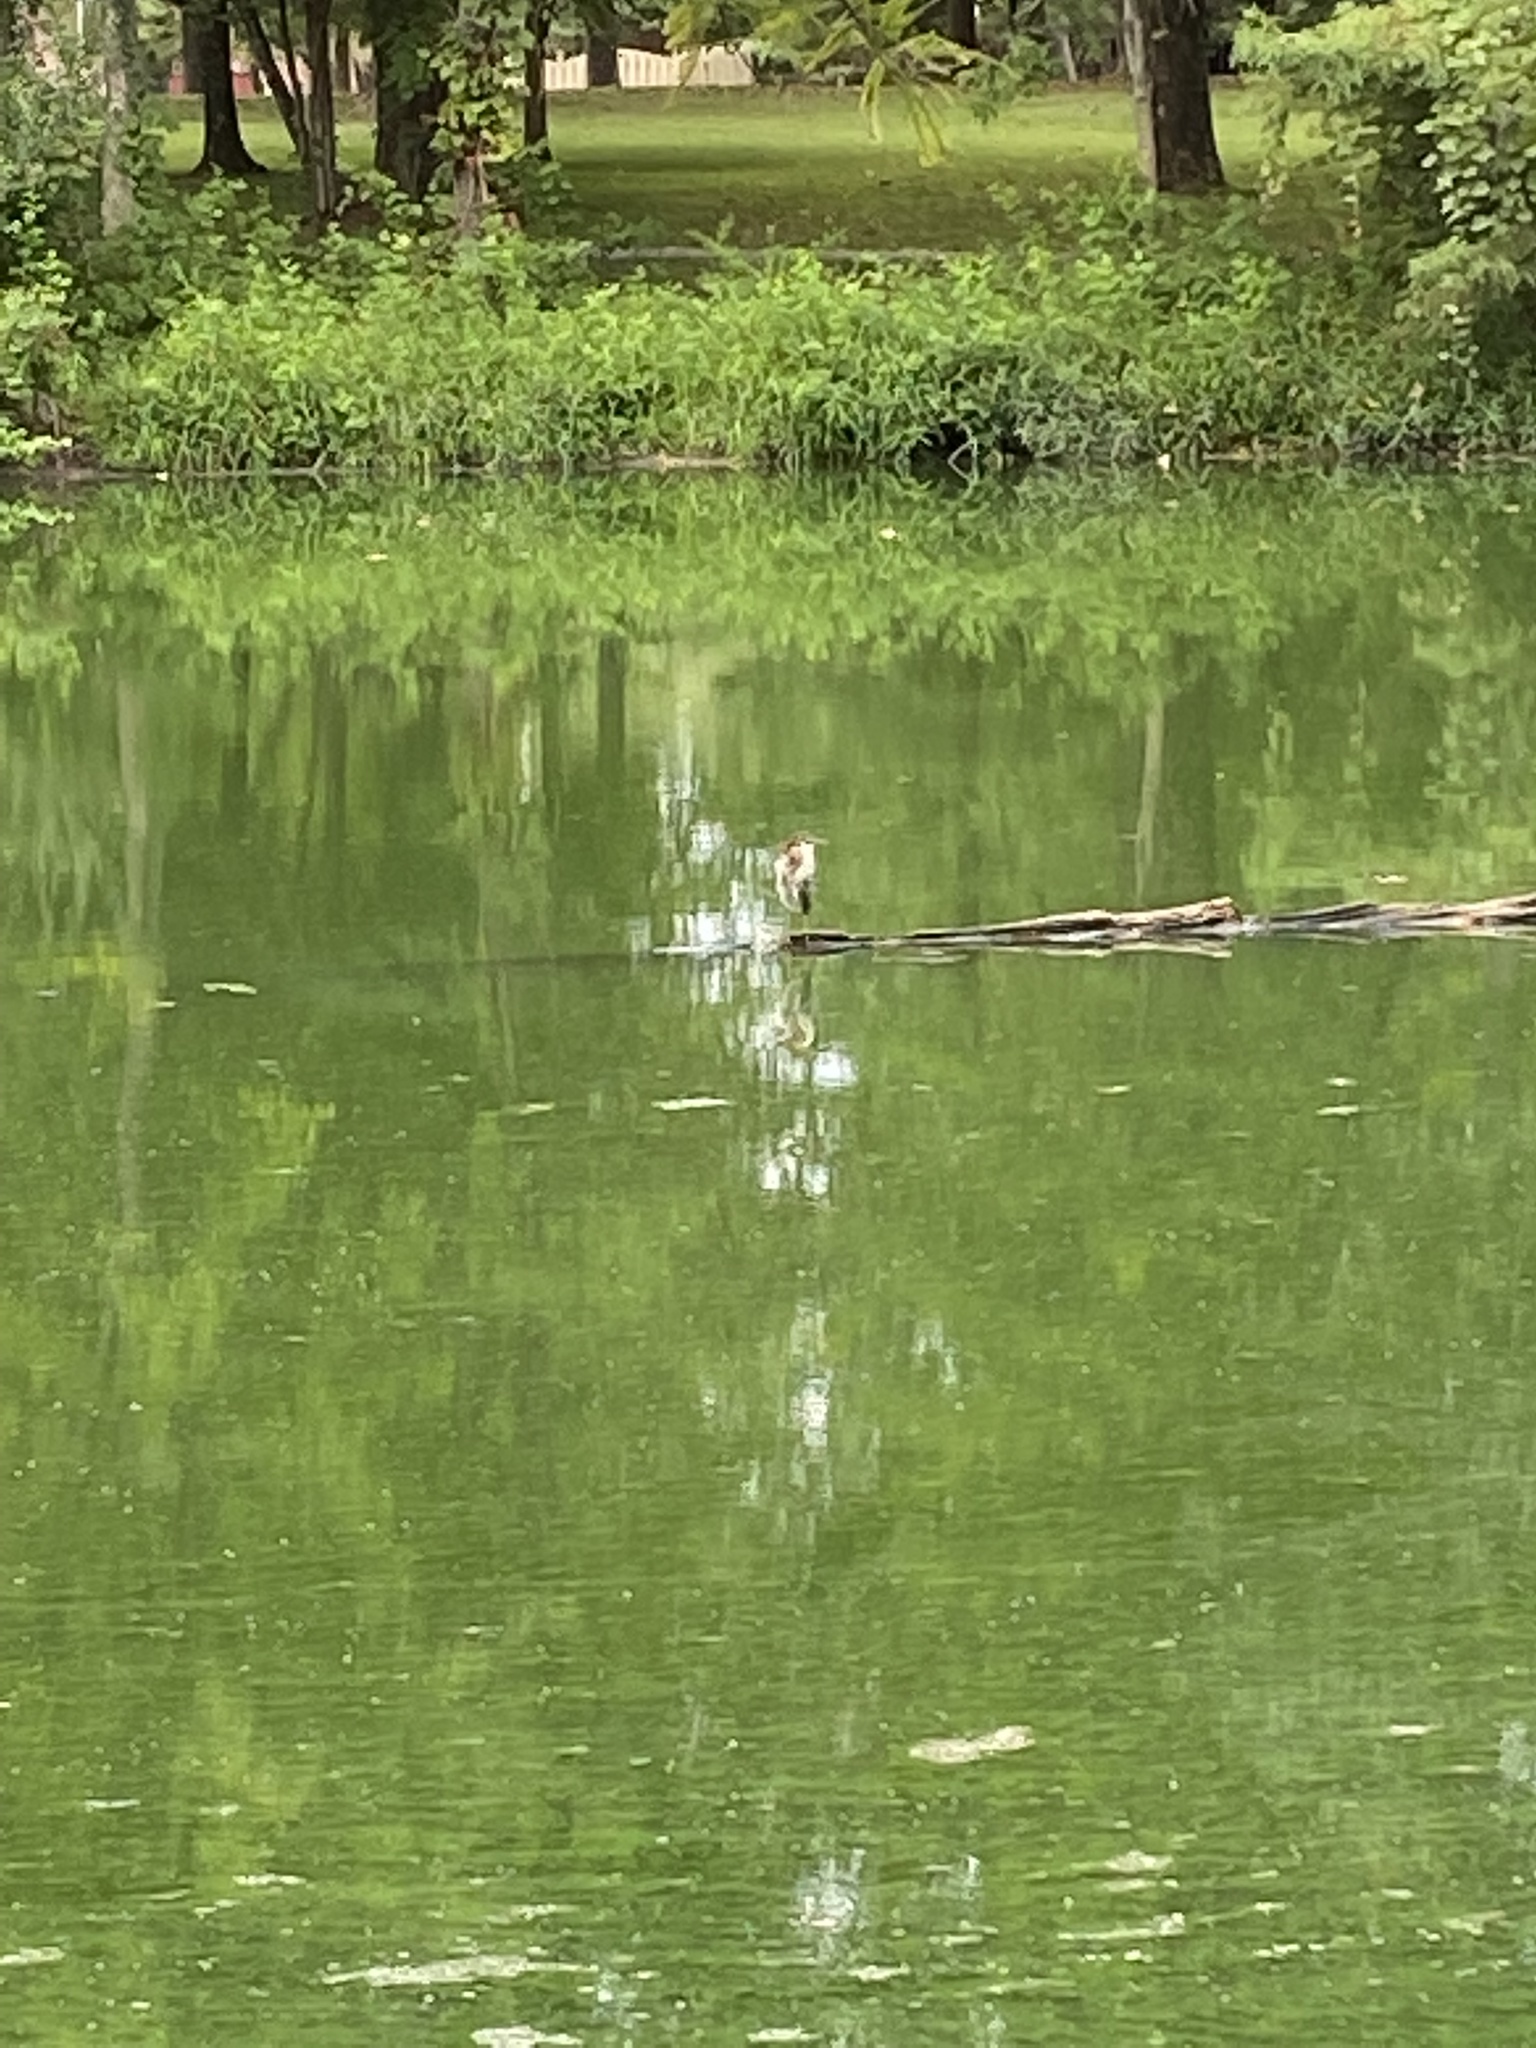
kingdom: Animalia
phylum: Chordata
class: Aves
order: Pelecaniformes
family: Ardeidae
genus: Butorides
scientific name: Butorides virescens
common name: Green heron
